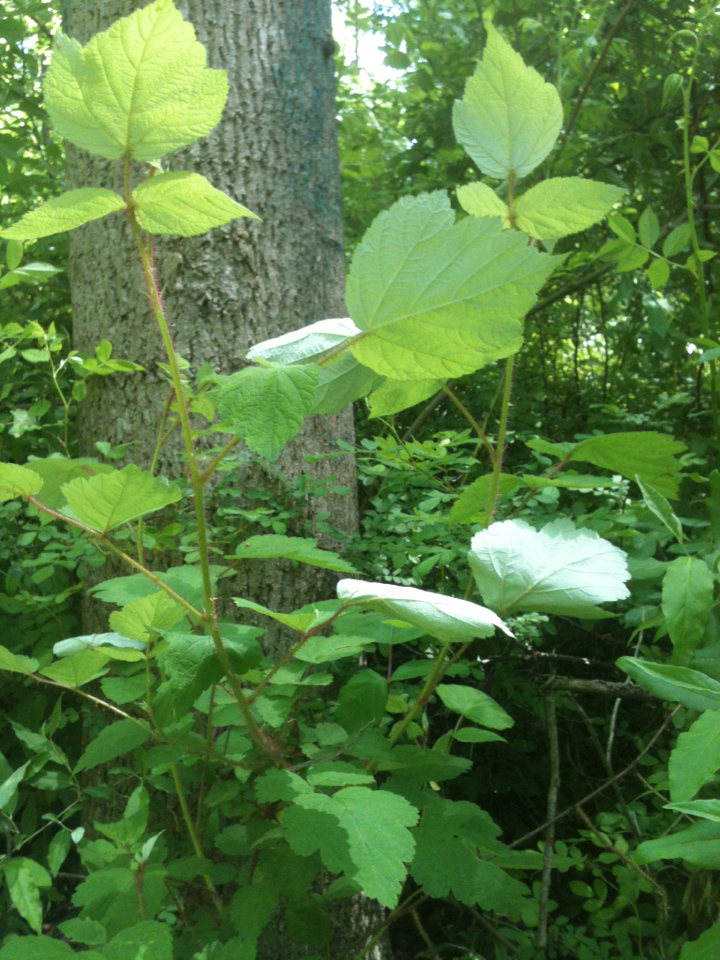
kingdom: Plantae
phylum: Tracheophyta
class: Magnoliopsida
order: Rosales
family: Rosaceae
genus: Rubus
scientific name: Rubus phoenicolasius
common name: Japanese wineberry
